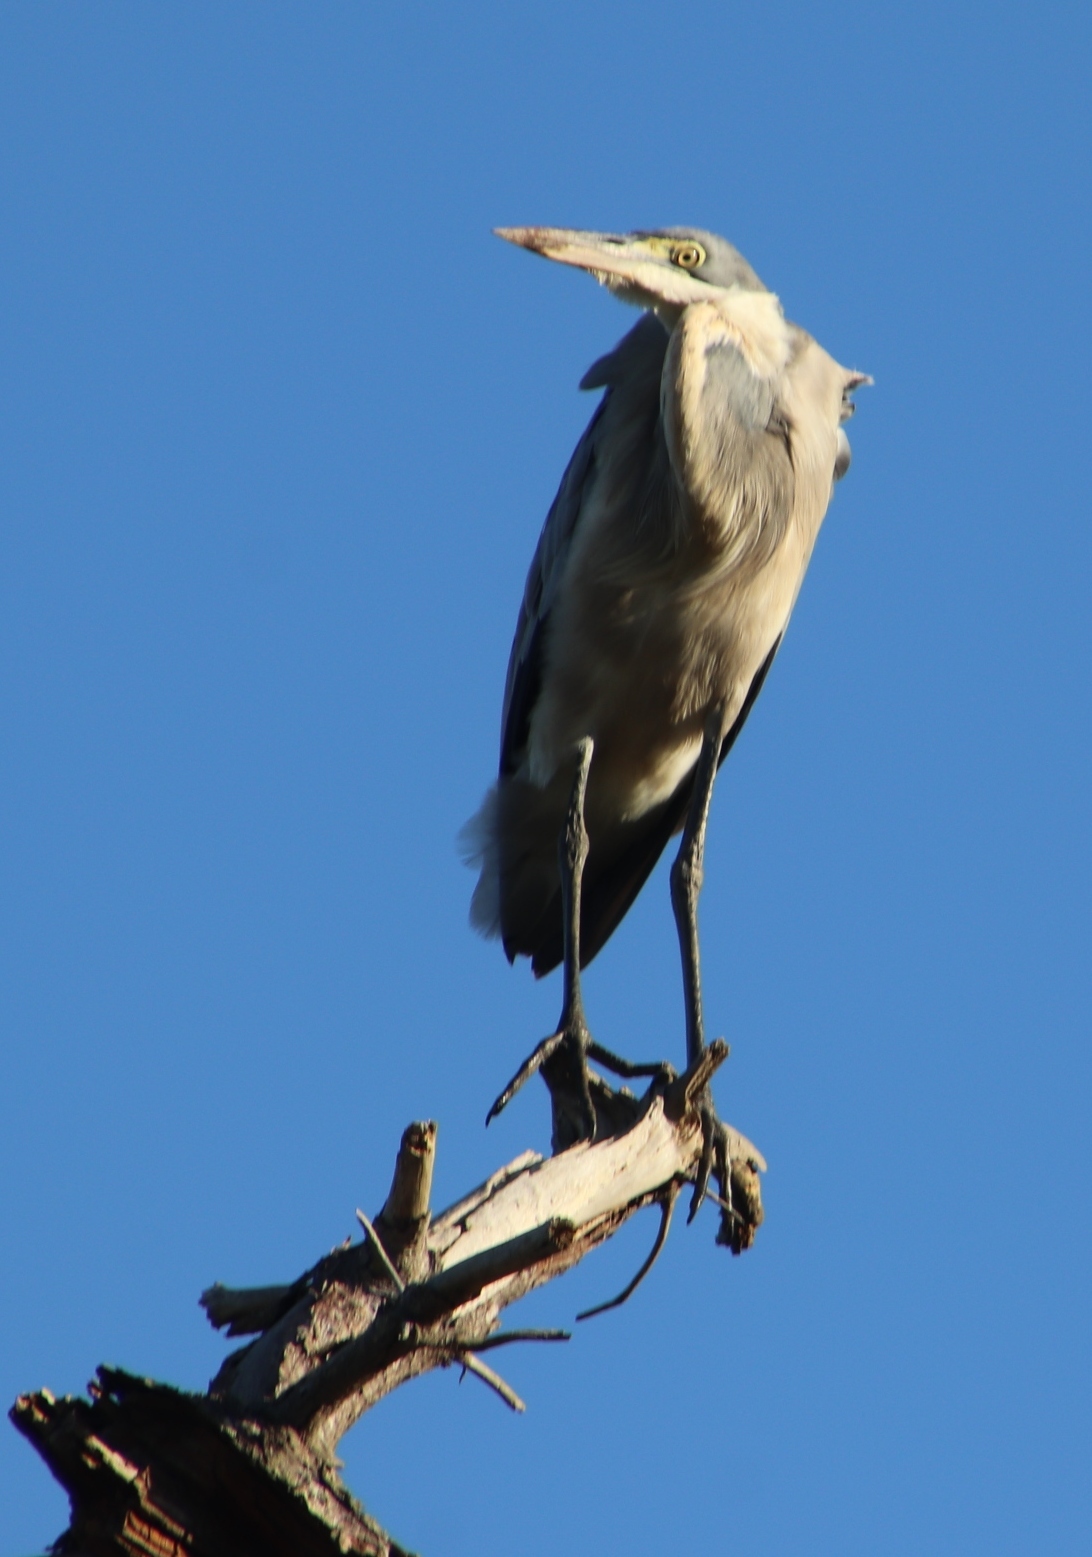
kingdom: Animalia
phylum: Chordata
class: Aves
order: Pelecaniformes
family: Ardeidae
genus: Ardea
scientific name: Ardea melanocephala
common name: Black-headed heron
